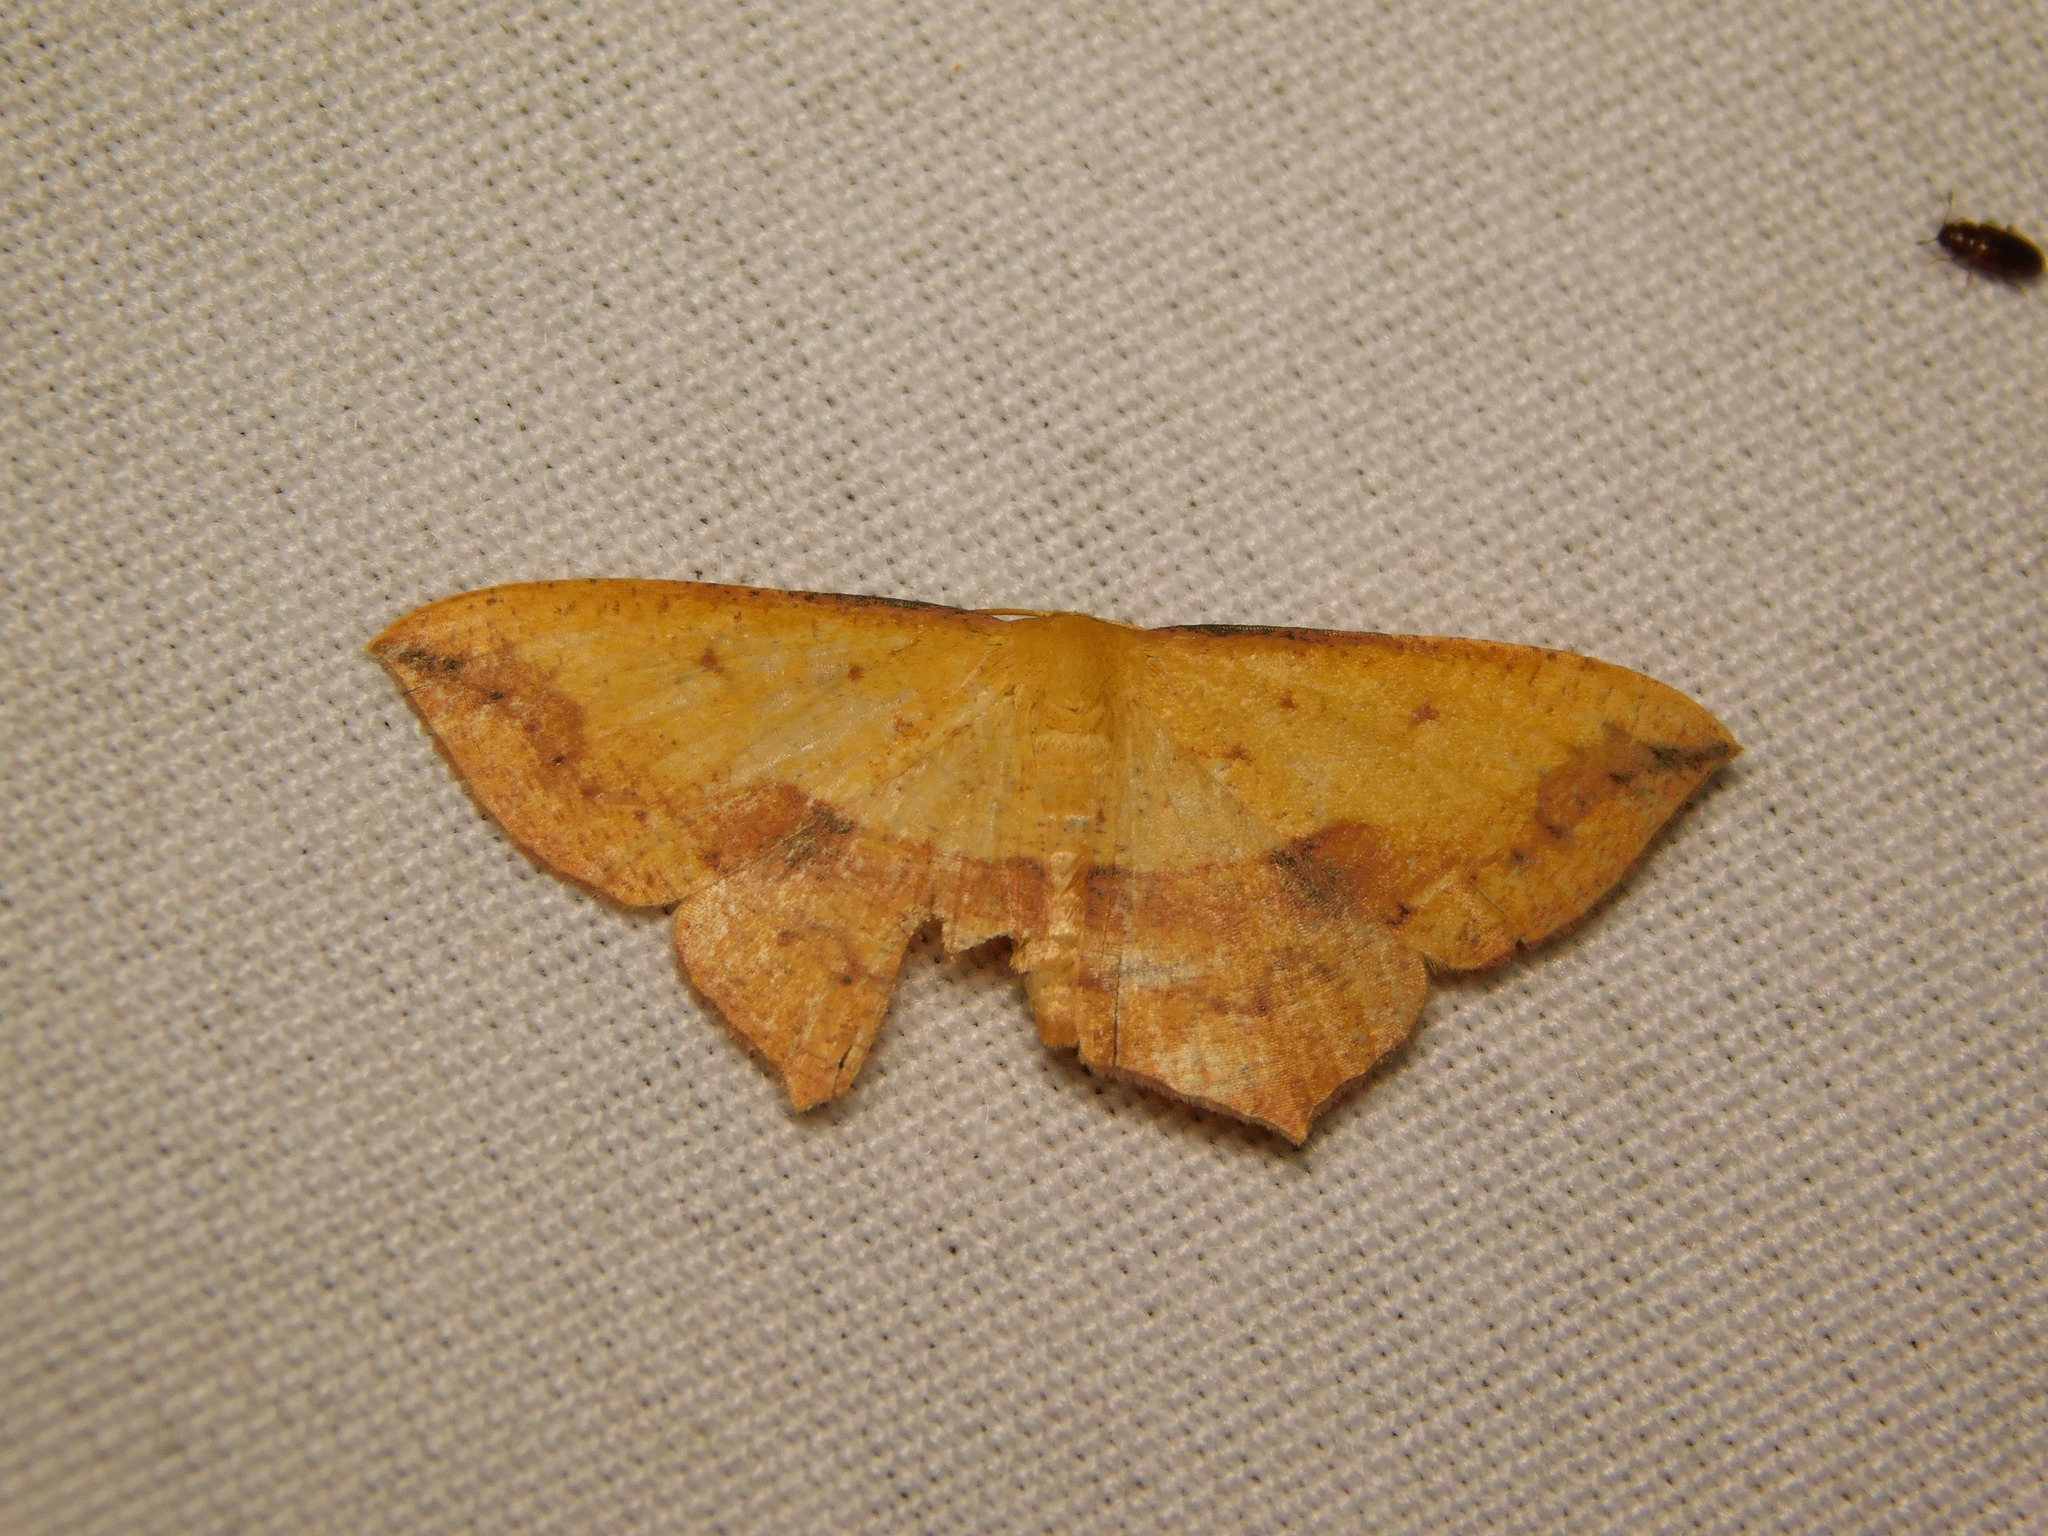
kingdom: Animalia
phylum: Arthropoda
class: Insecta
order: Lepidoptera
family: Geometridae
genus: Timandra
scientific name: Timandra ruptilinea
